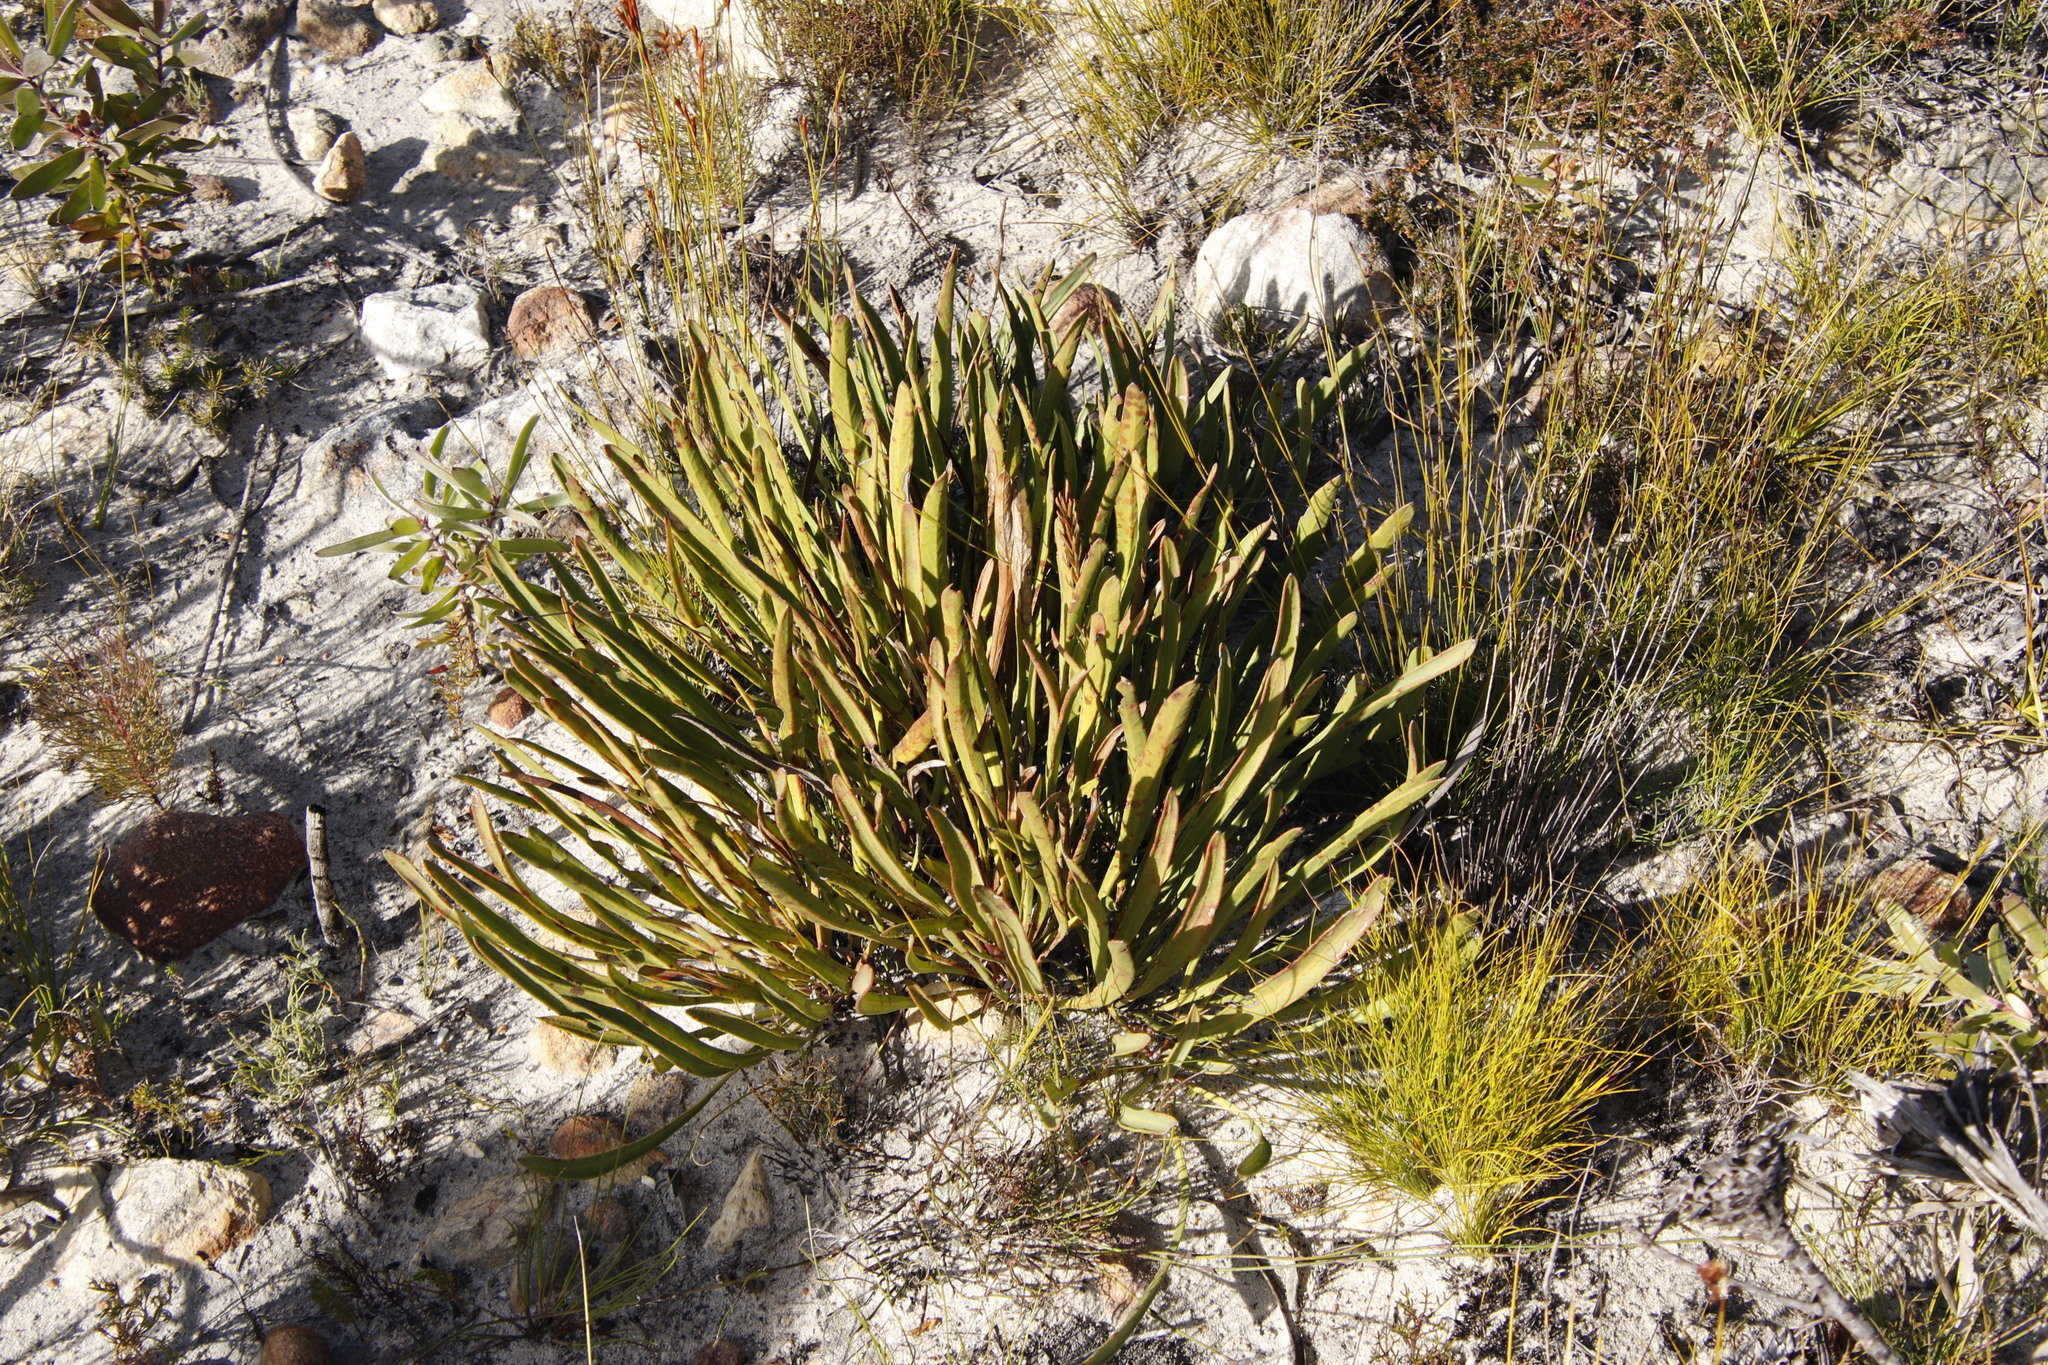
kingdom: Plantae
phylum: Tracheophyta
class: Magnoliopsida
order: Proteales
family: Proteaceae
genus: Protea
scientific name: Protea scabra
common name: Sandpaper-leaf sugarbush
